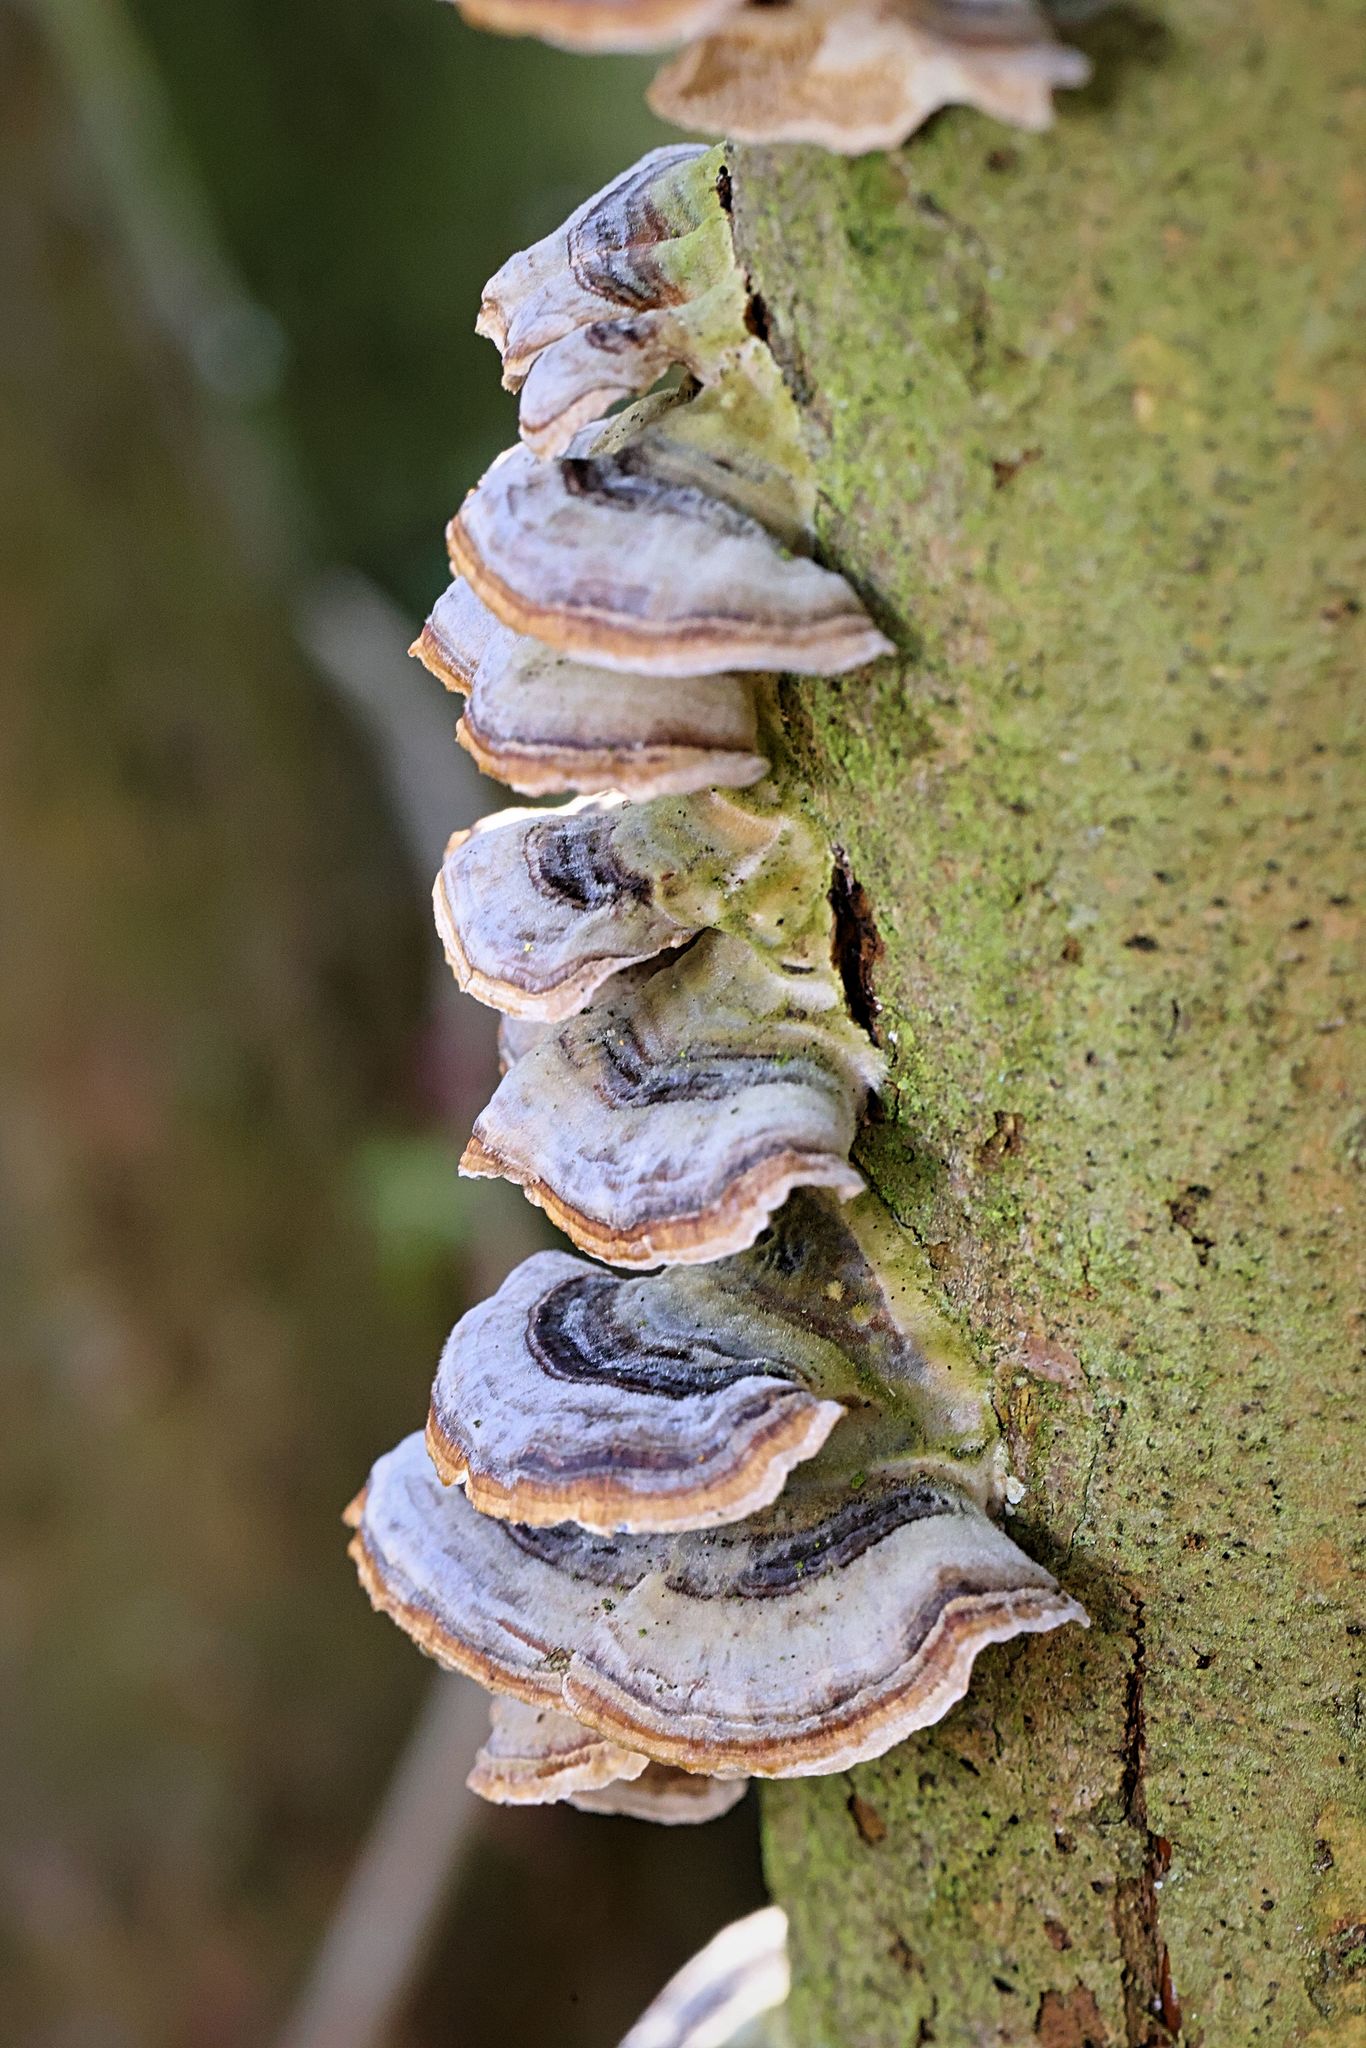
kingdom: Fungi
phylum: Basidiomycota
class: Agaricomycetes
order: Polyporales
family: Polyporaceae
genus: Trametes
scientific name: Trametes versicolor
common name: Turkeytail
